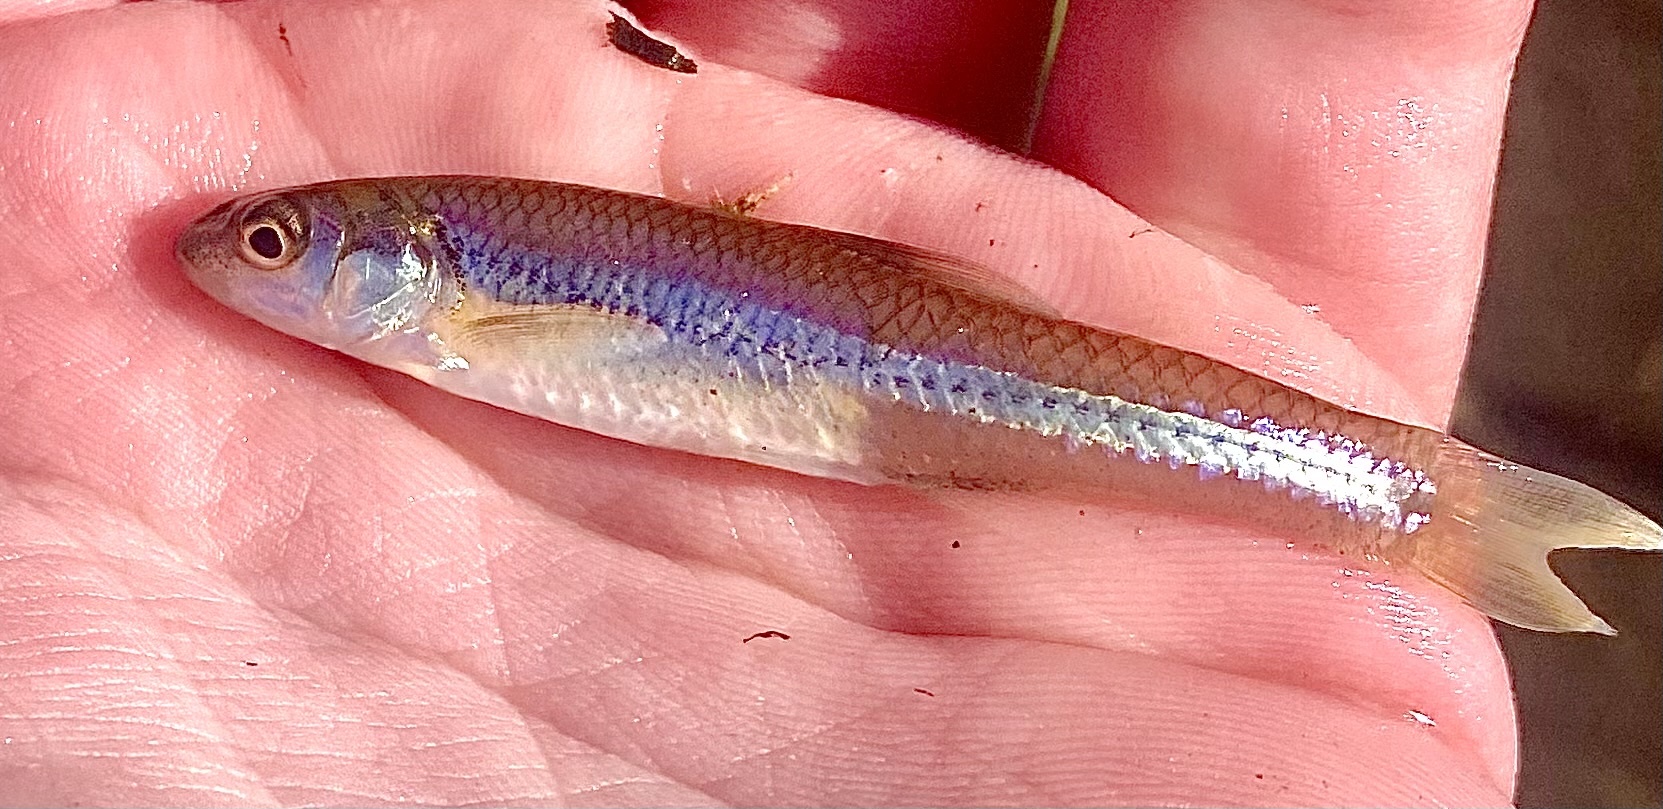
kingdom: Animalia
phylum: Chordata
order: Cypriniformes
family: Cyprinidae
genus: Ericymba
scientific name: Ericymba
